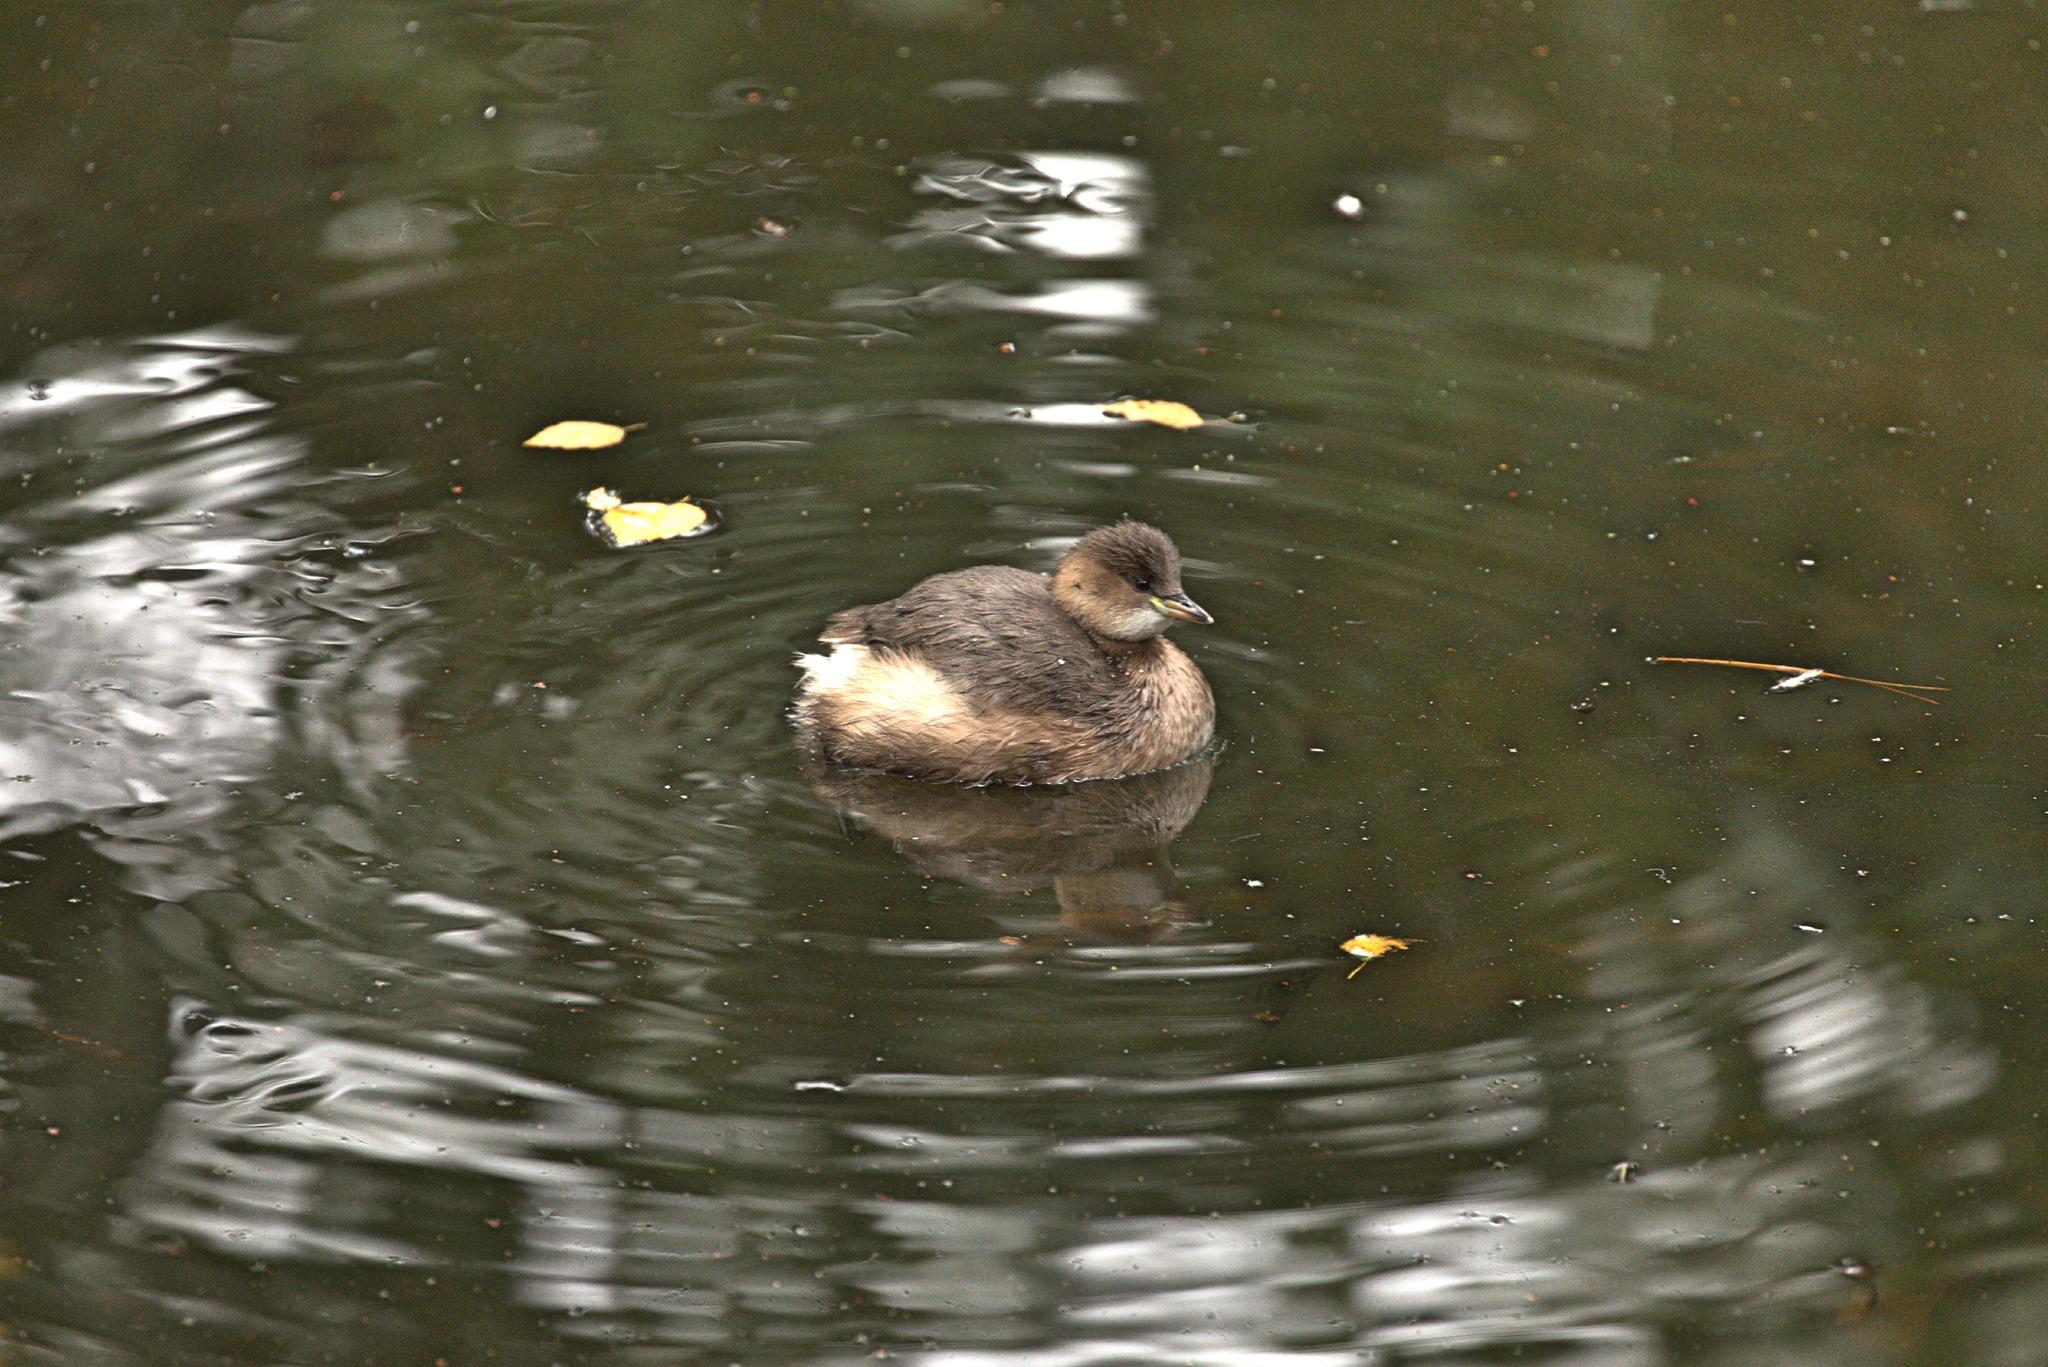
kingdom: Animalia
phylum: Chordata
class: Aves
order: Podicipediformes
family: Podicipedidae
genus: Tachybaptus
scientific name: Tachybaptus ruficollis
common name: Little grebe
